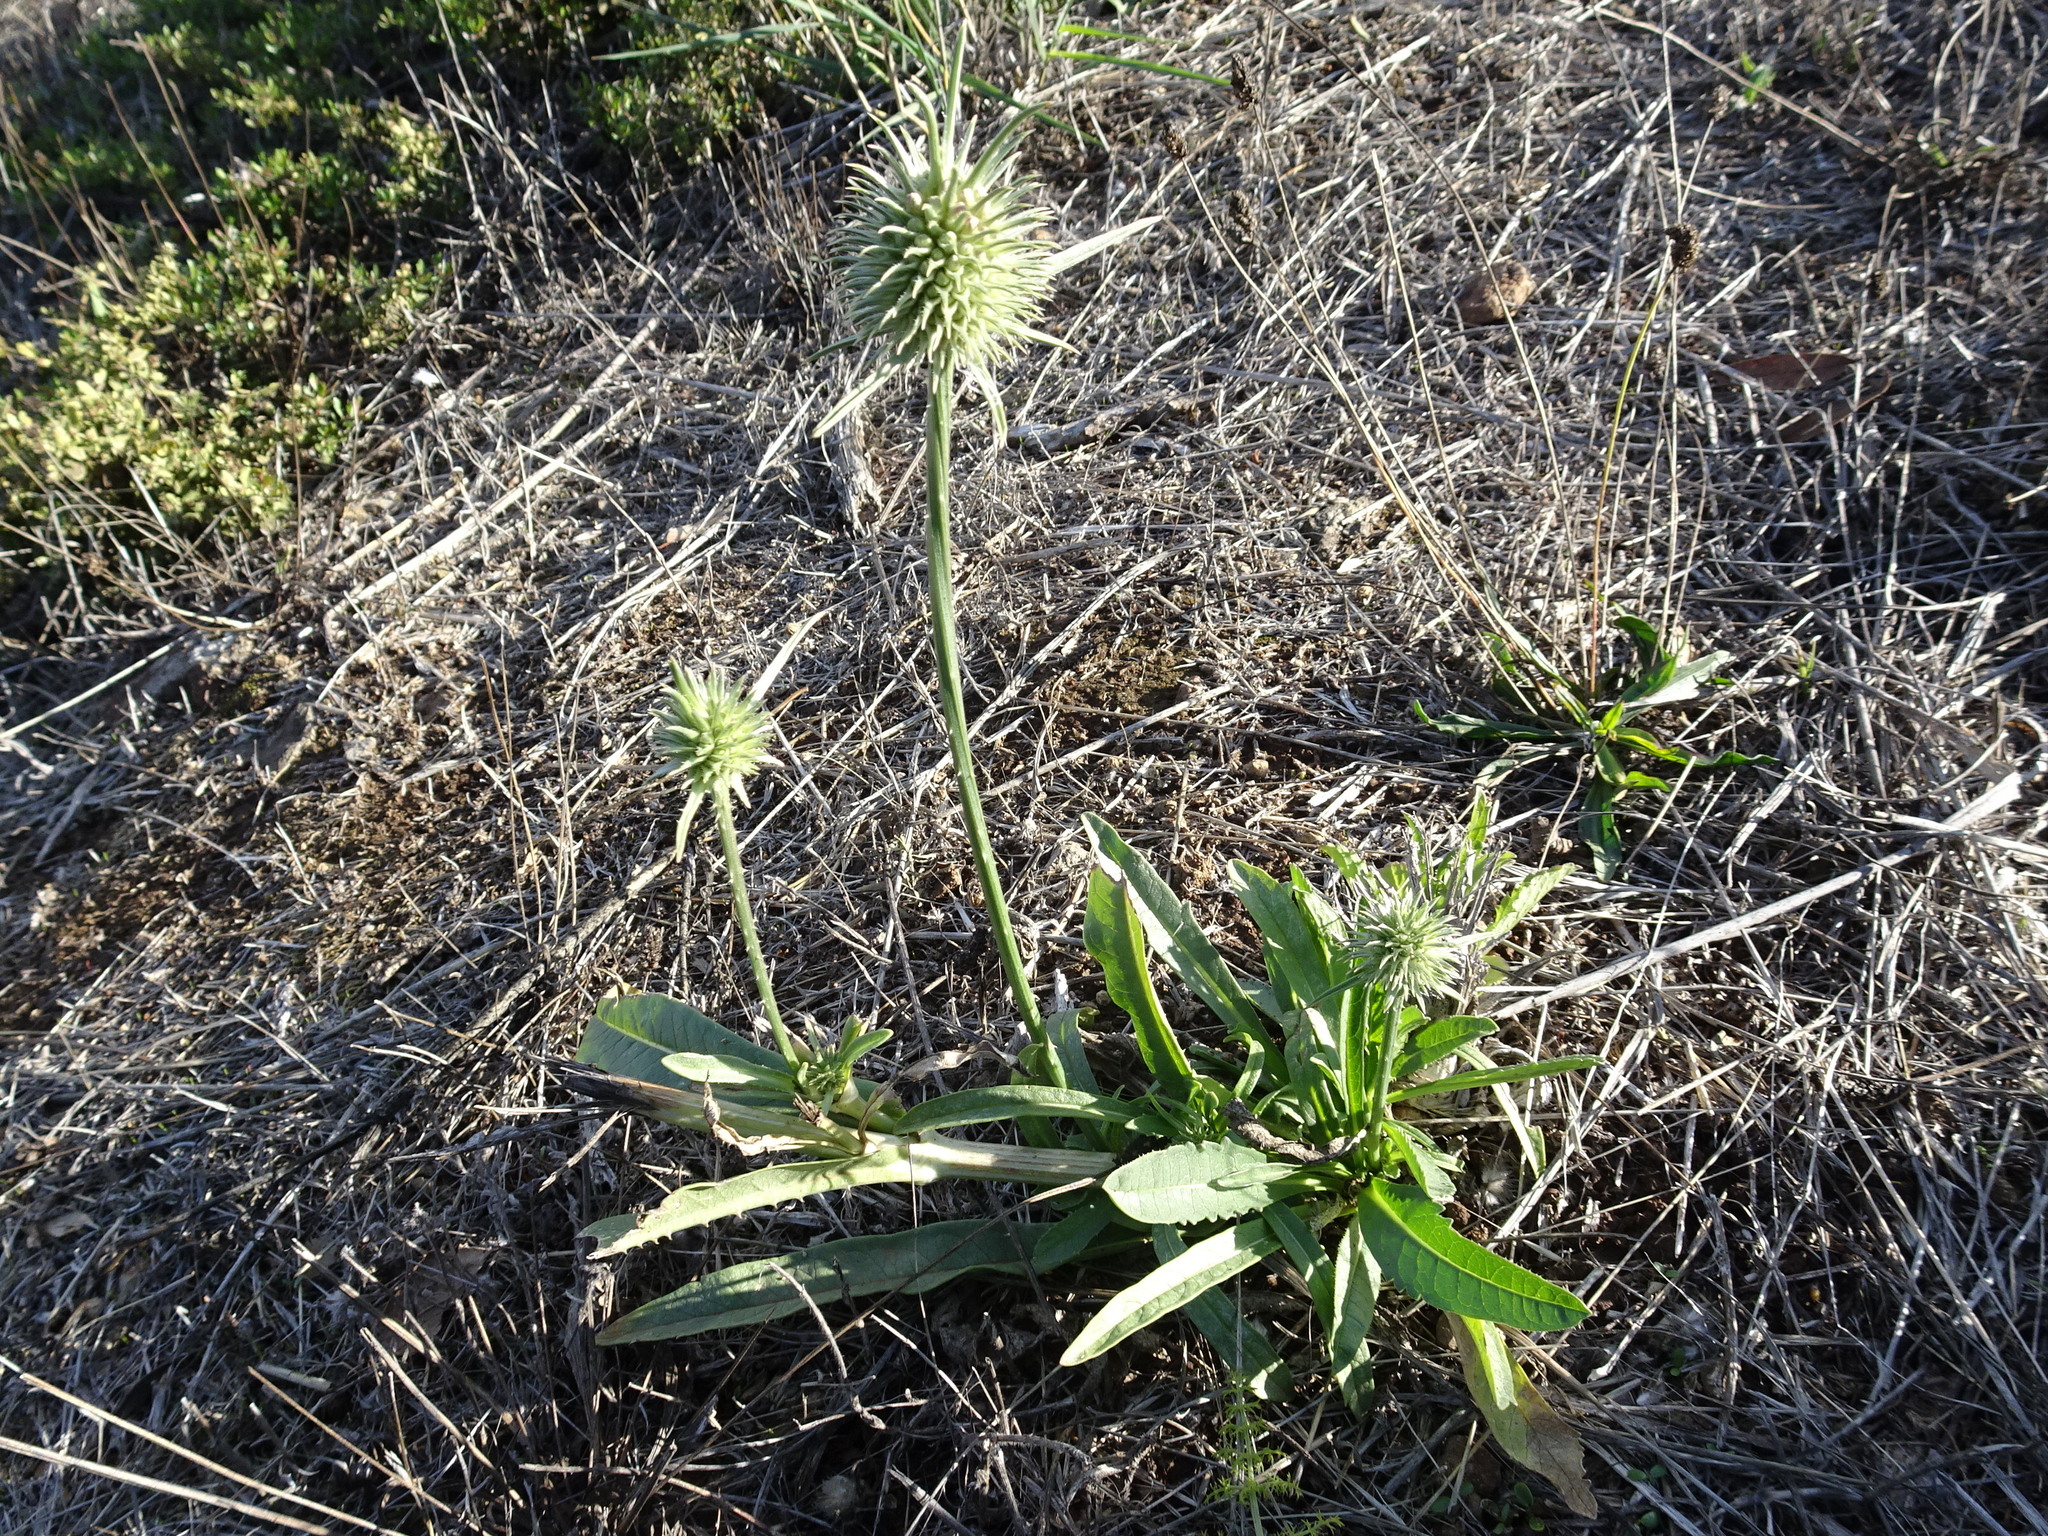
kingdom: Plantae
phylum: Tracheophyta
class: Magnoliopsida
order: Dipsacales
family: Caprifoliaceae
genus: Dipsacus
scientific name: Dipsacus sativus
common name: Fuller's teasel
